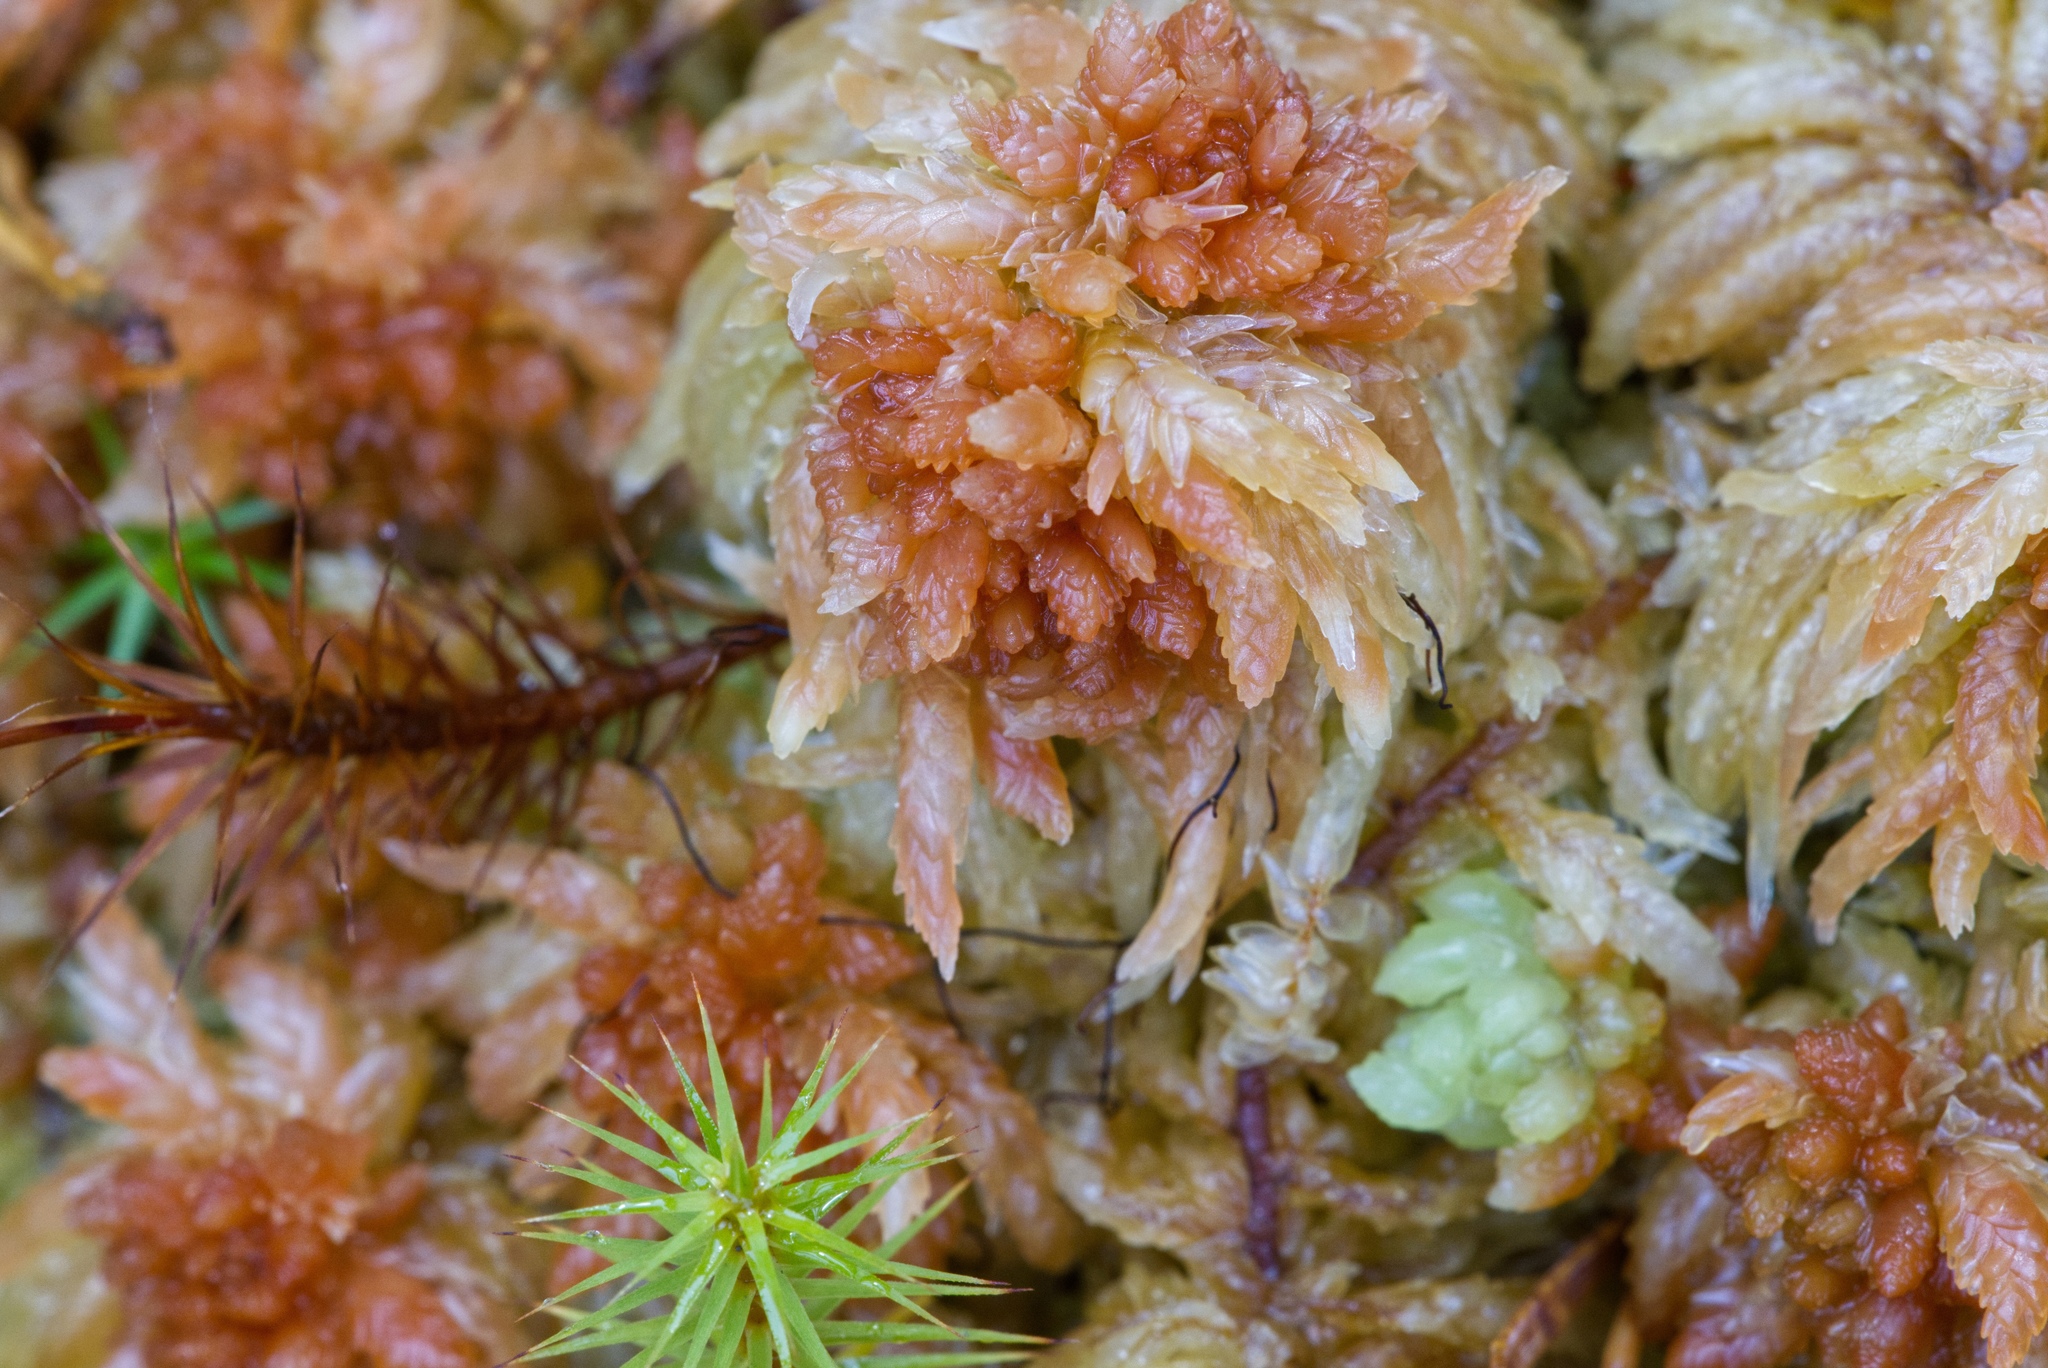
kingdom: Plantae
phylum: Bryophyta
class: Sphagnopsida
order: Sphagnales
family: Sphagnaceae
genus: Sphagnum
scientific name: Sphagnum palustre
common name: Blunt-leaved bog-moss
